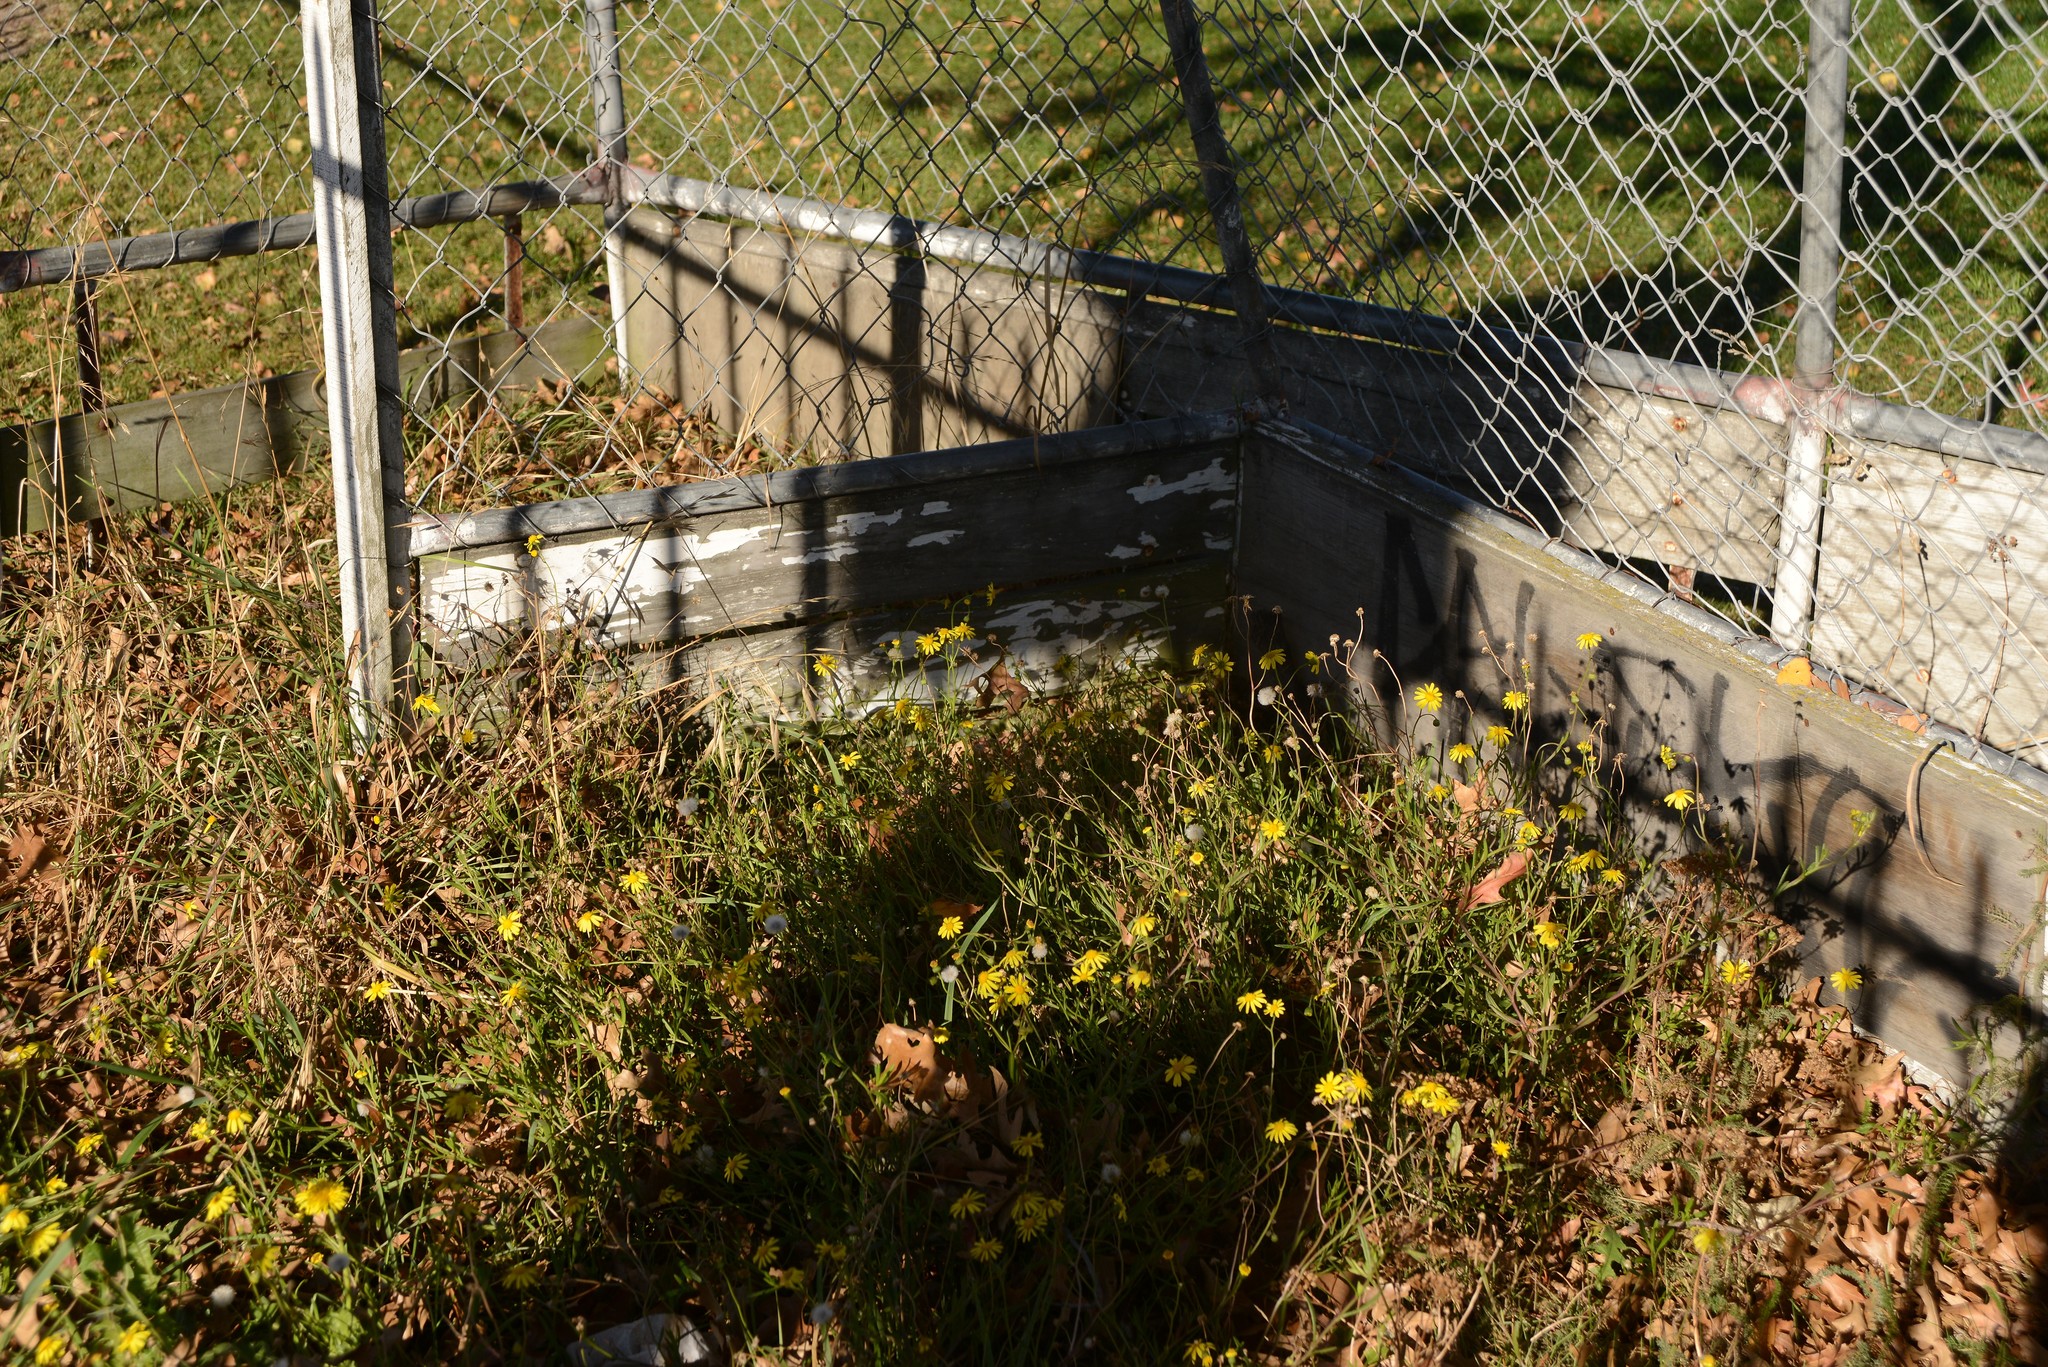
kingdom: Plantae
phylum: Tracheophyta
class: Magnoliopsida
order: Asterales
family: Asteraceae
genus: Senecio
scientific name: Senecio skirrhodon
